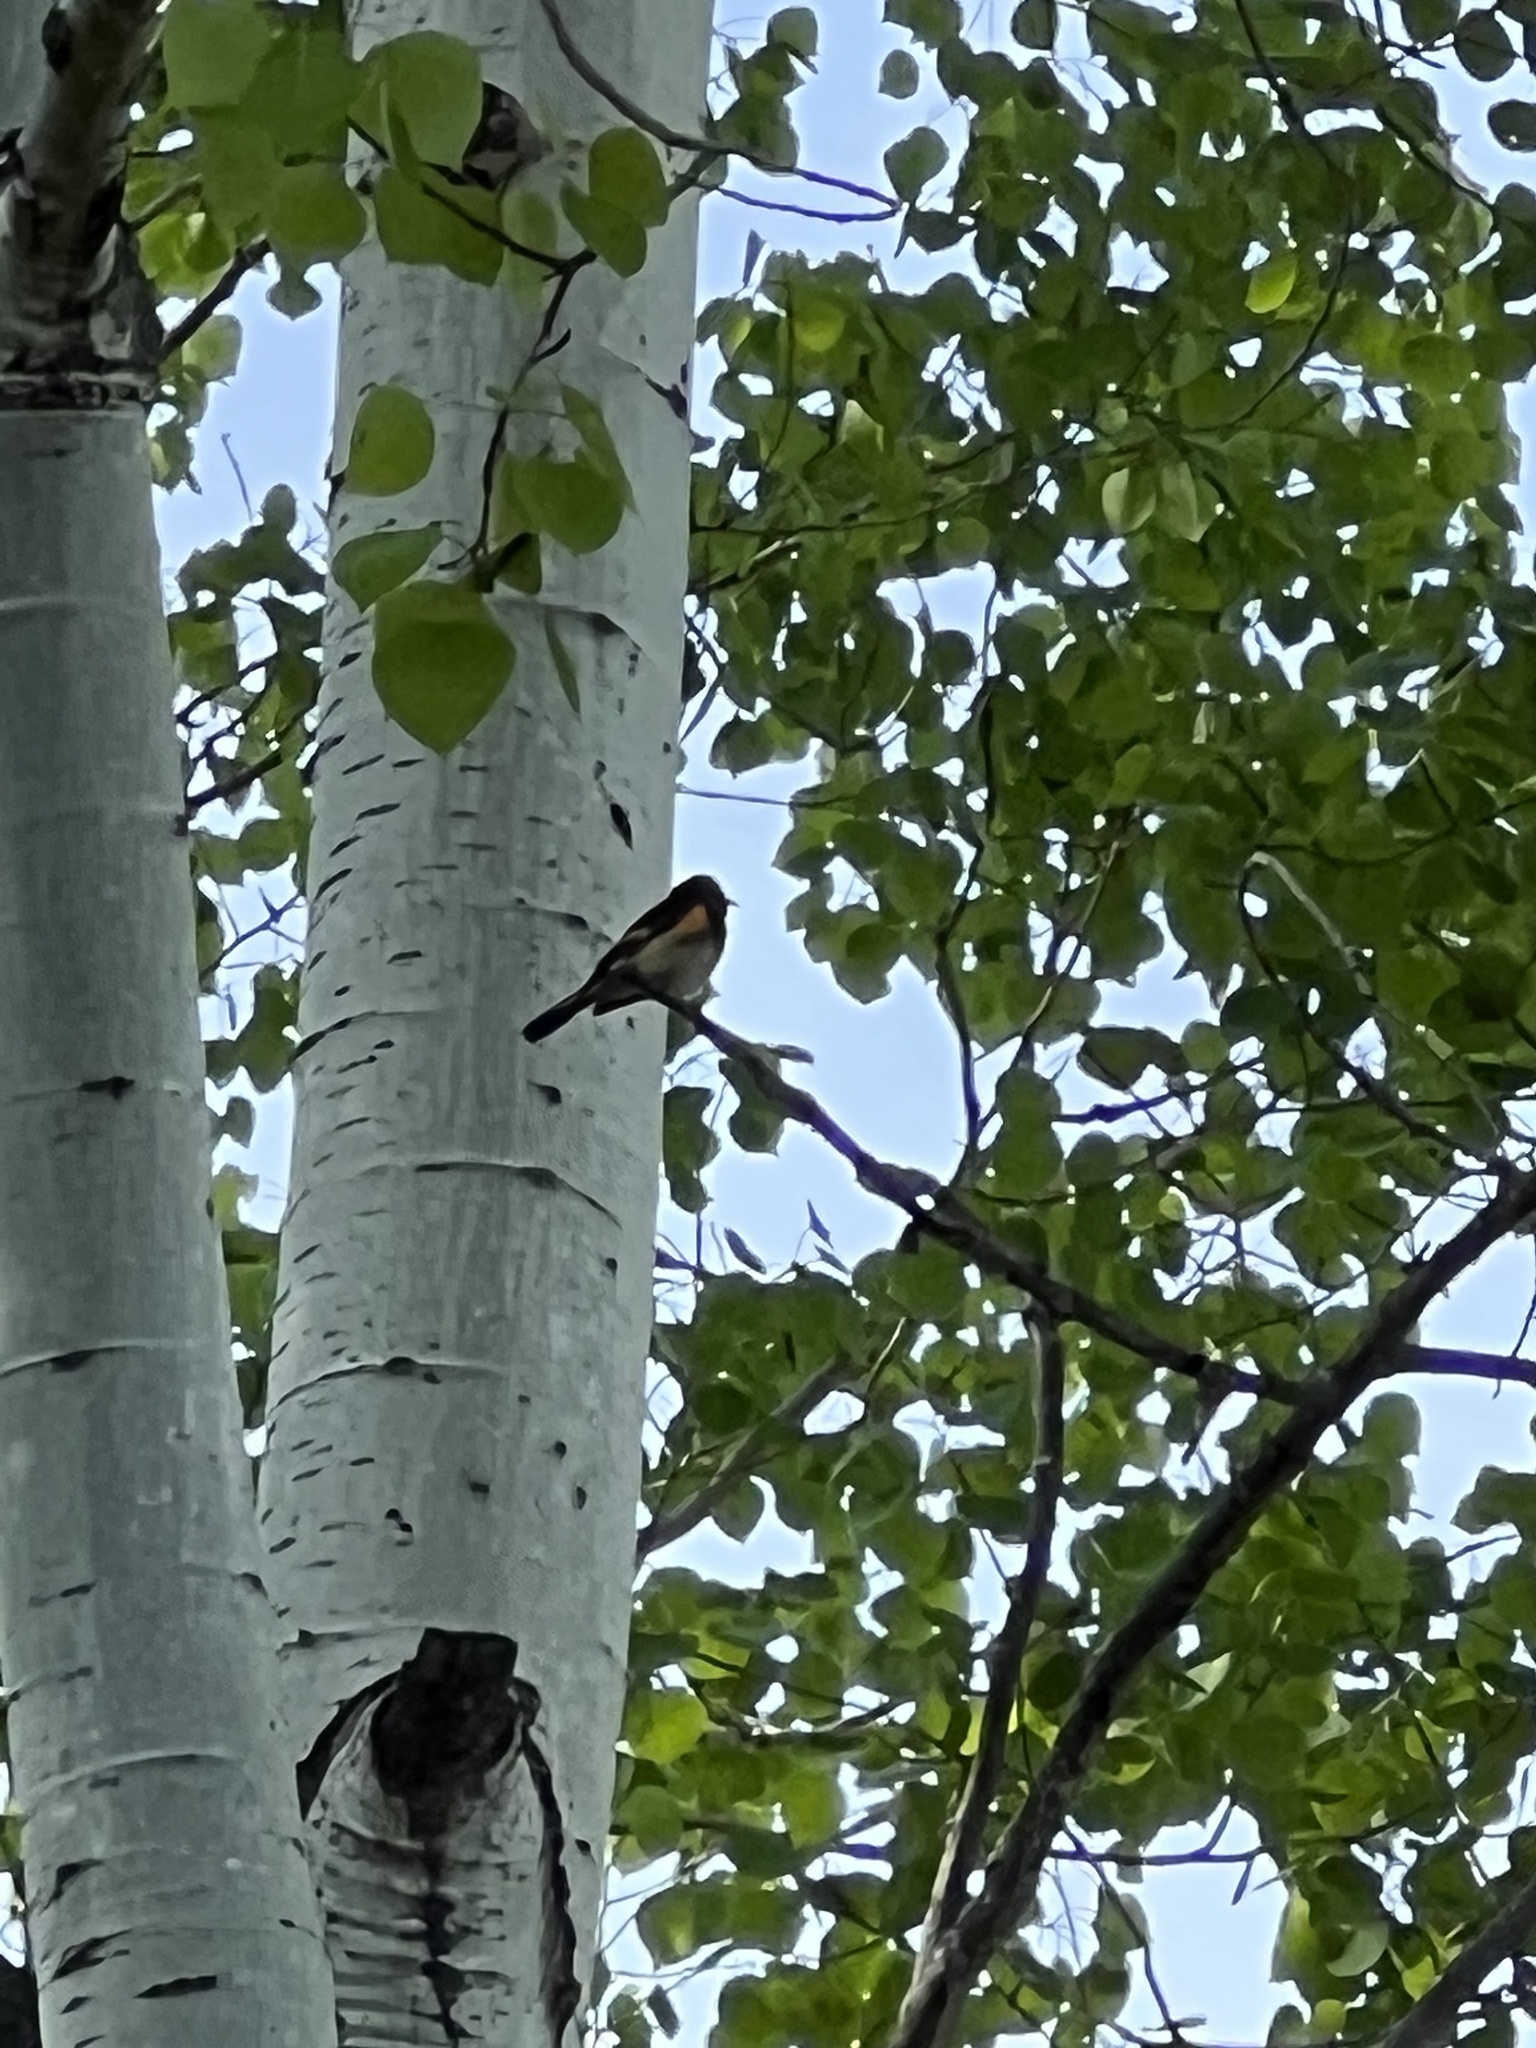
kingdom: Animalia
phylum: Chordata
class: Aves
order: Passeriformes
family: Parulidae
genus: Setophaga
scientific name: Setophaga ruticilla
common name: American redstart
